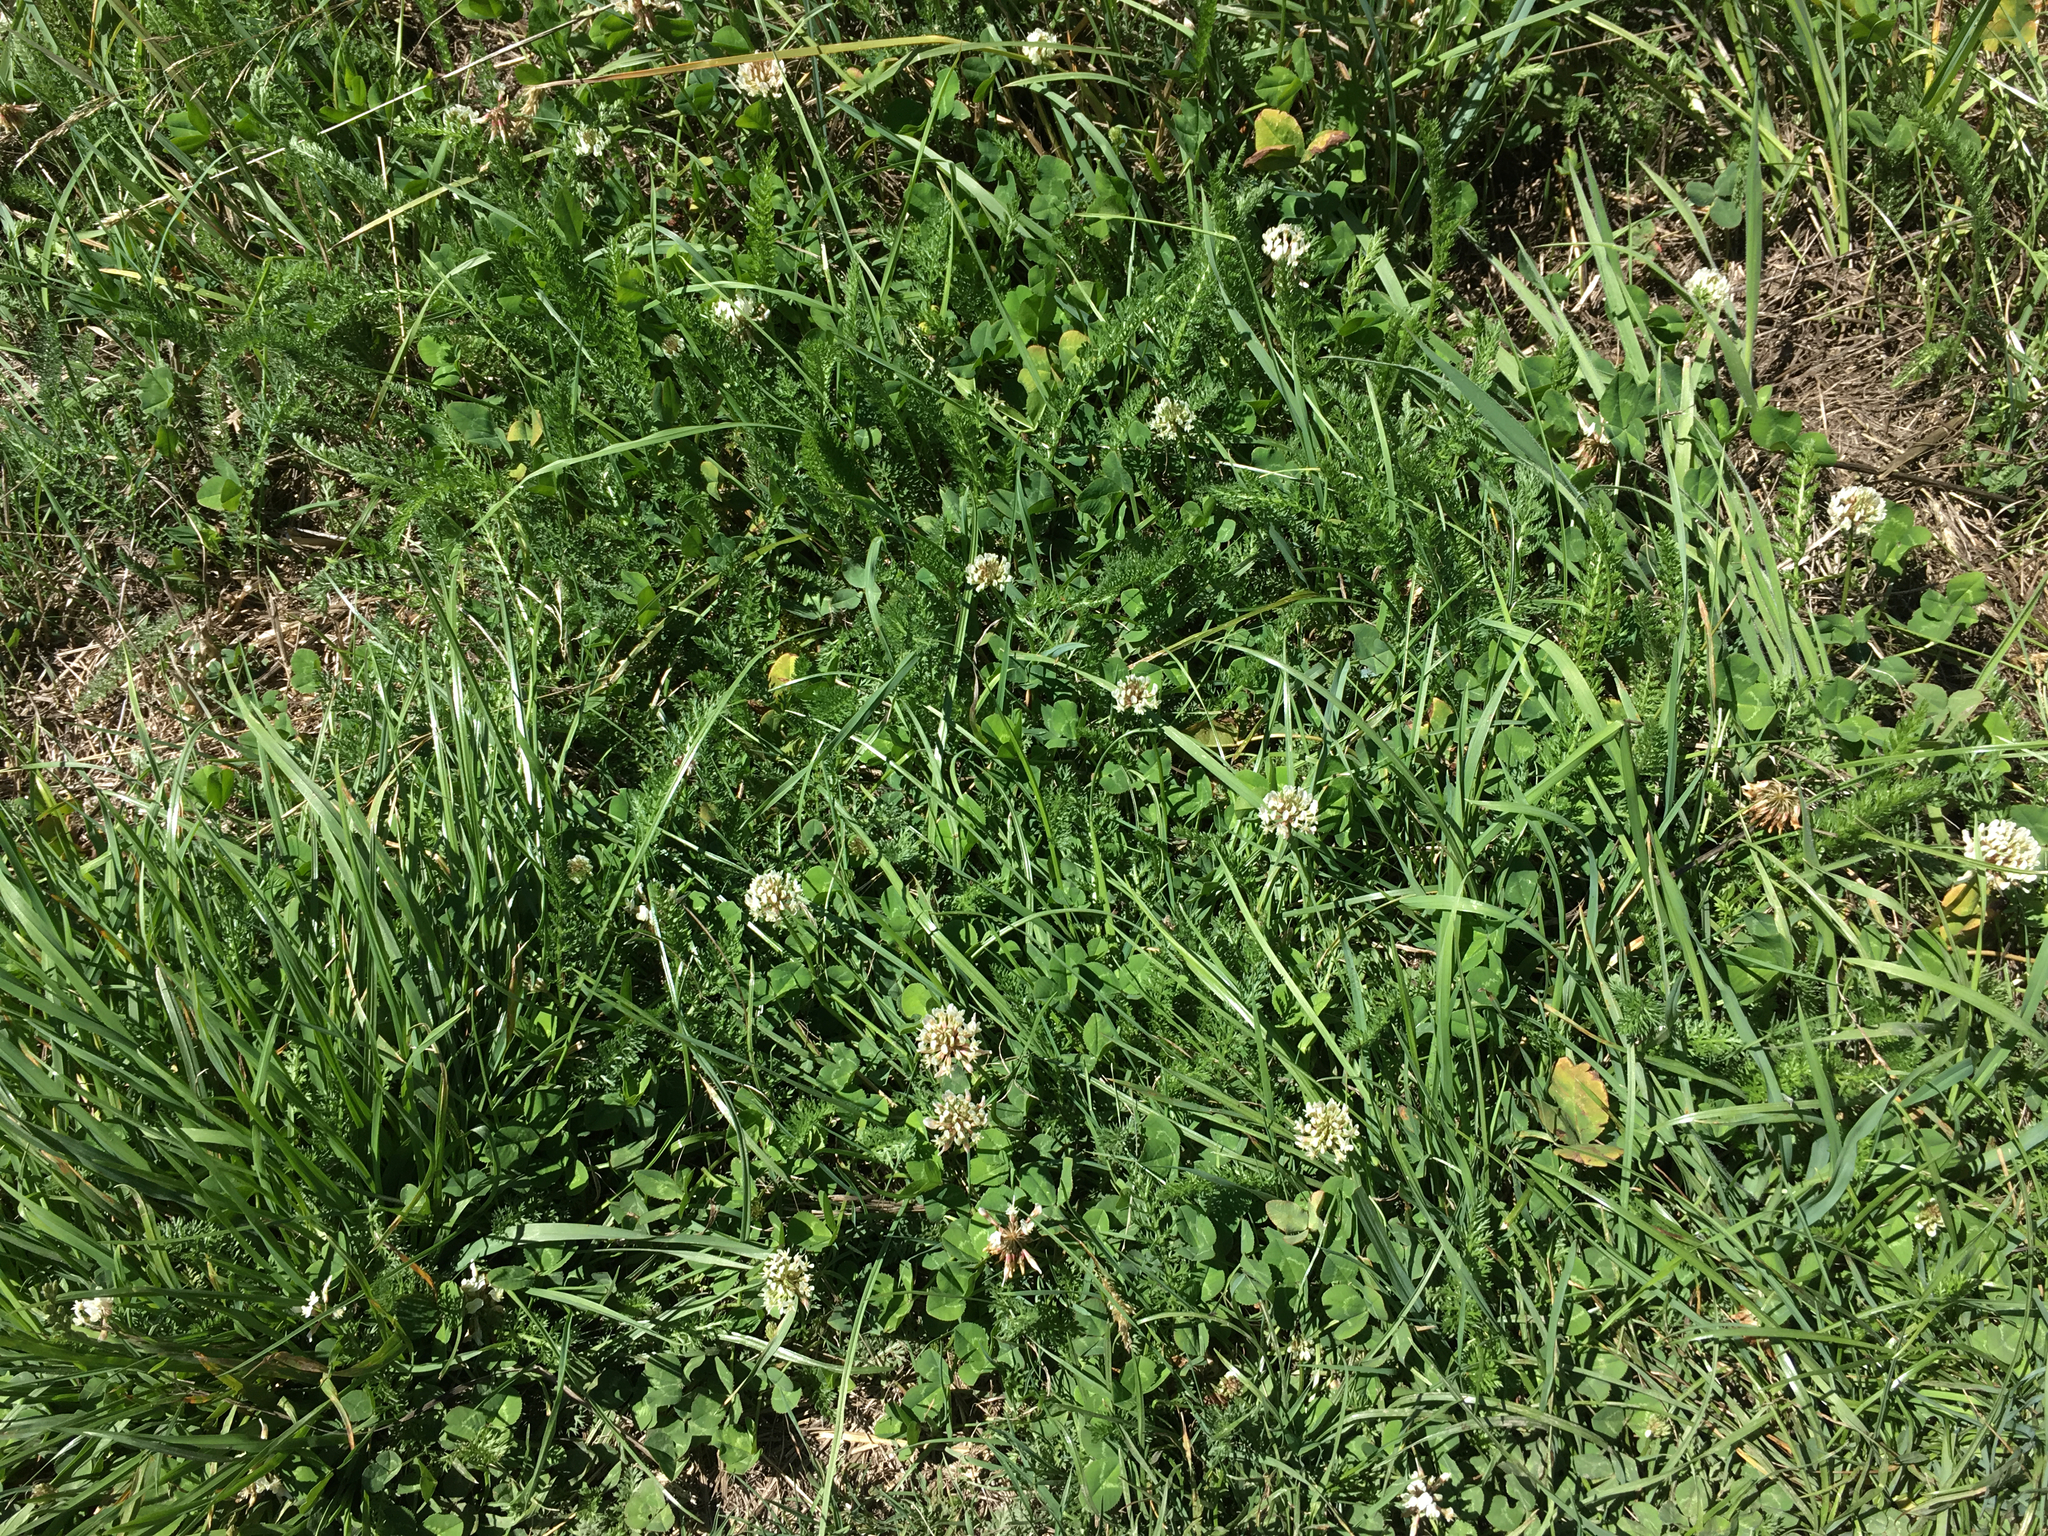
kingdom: Plantae
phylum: Tracheophyta
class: Magnoliopsida
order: Fabales
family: Fabaceae
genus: Trifolium
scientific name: Trifolium repens
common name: White clover
